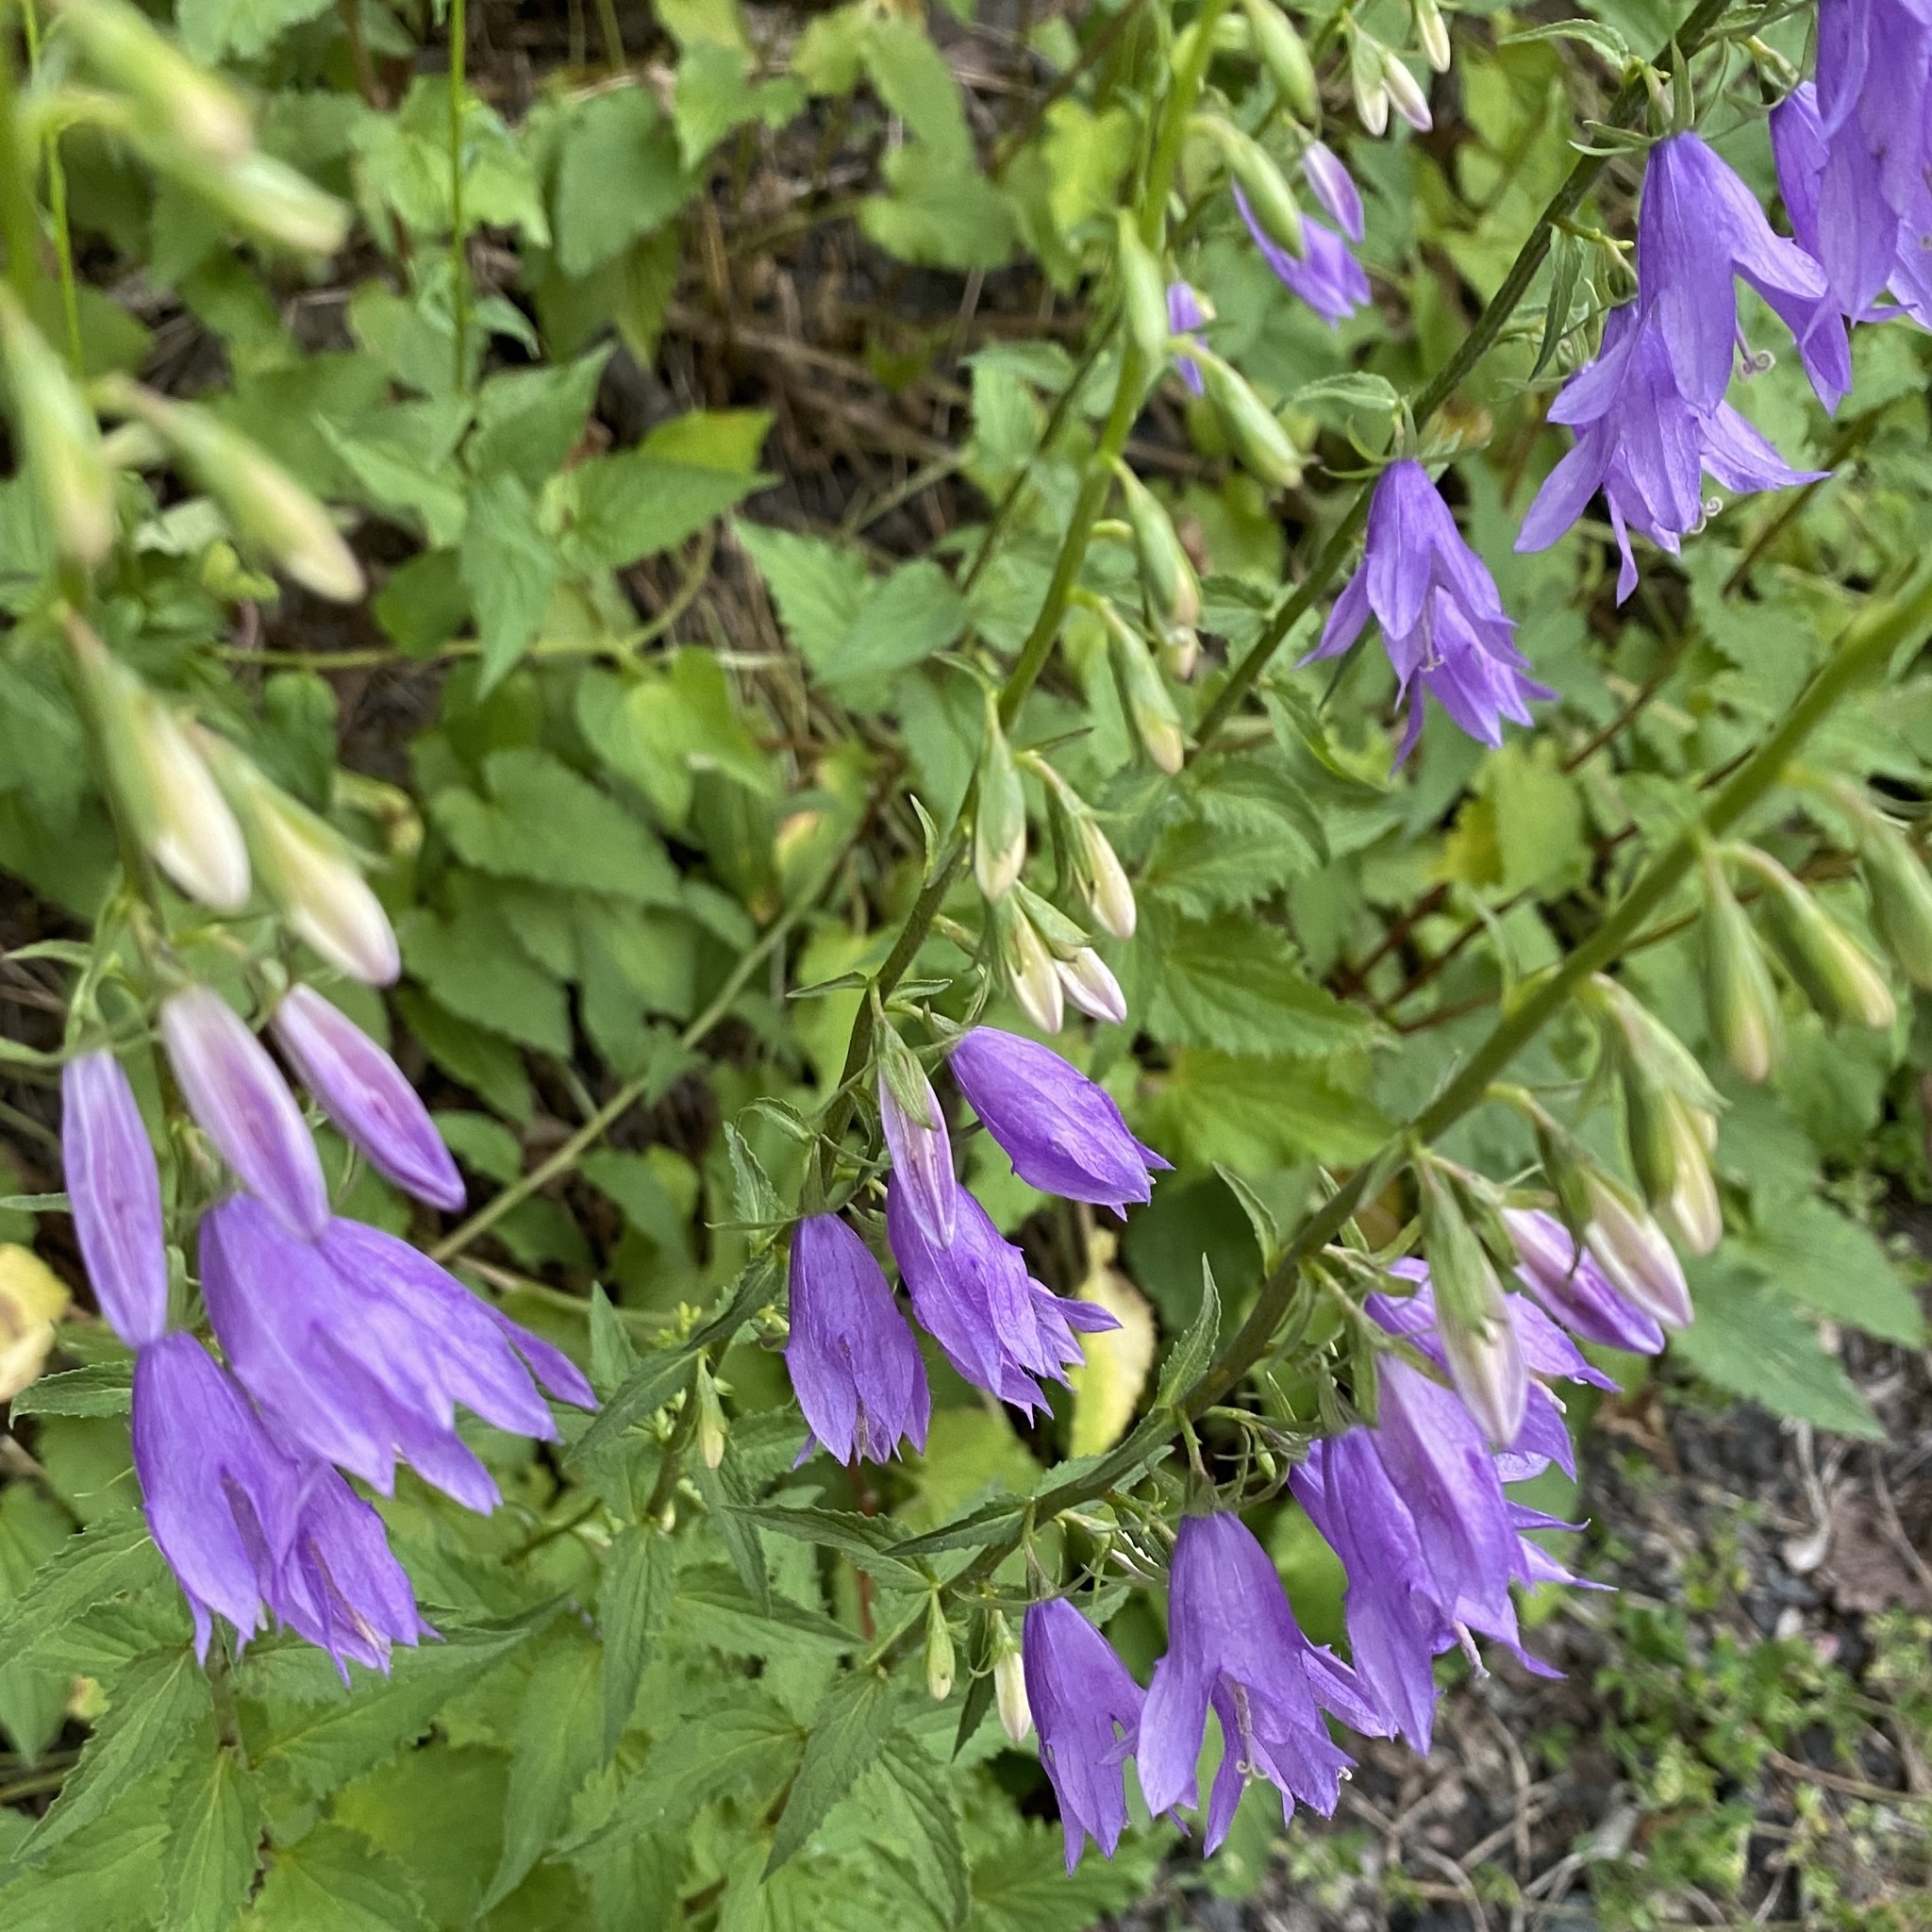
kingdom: Plantae
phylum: Tracheophyta
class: Magnoliopsida
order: Asterales
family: Campanulaceae
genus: Campanula
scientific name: Campanula trachelium
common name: Nettle-leaved bellflower
